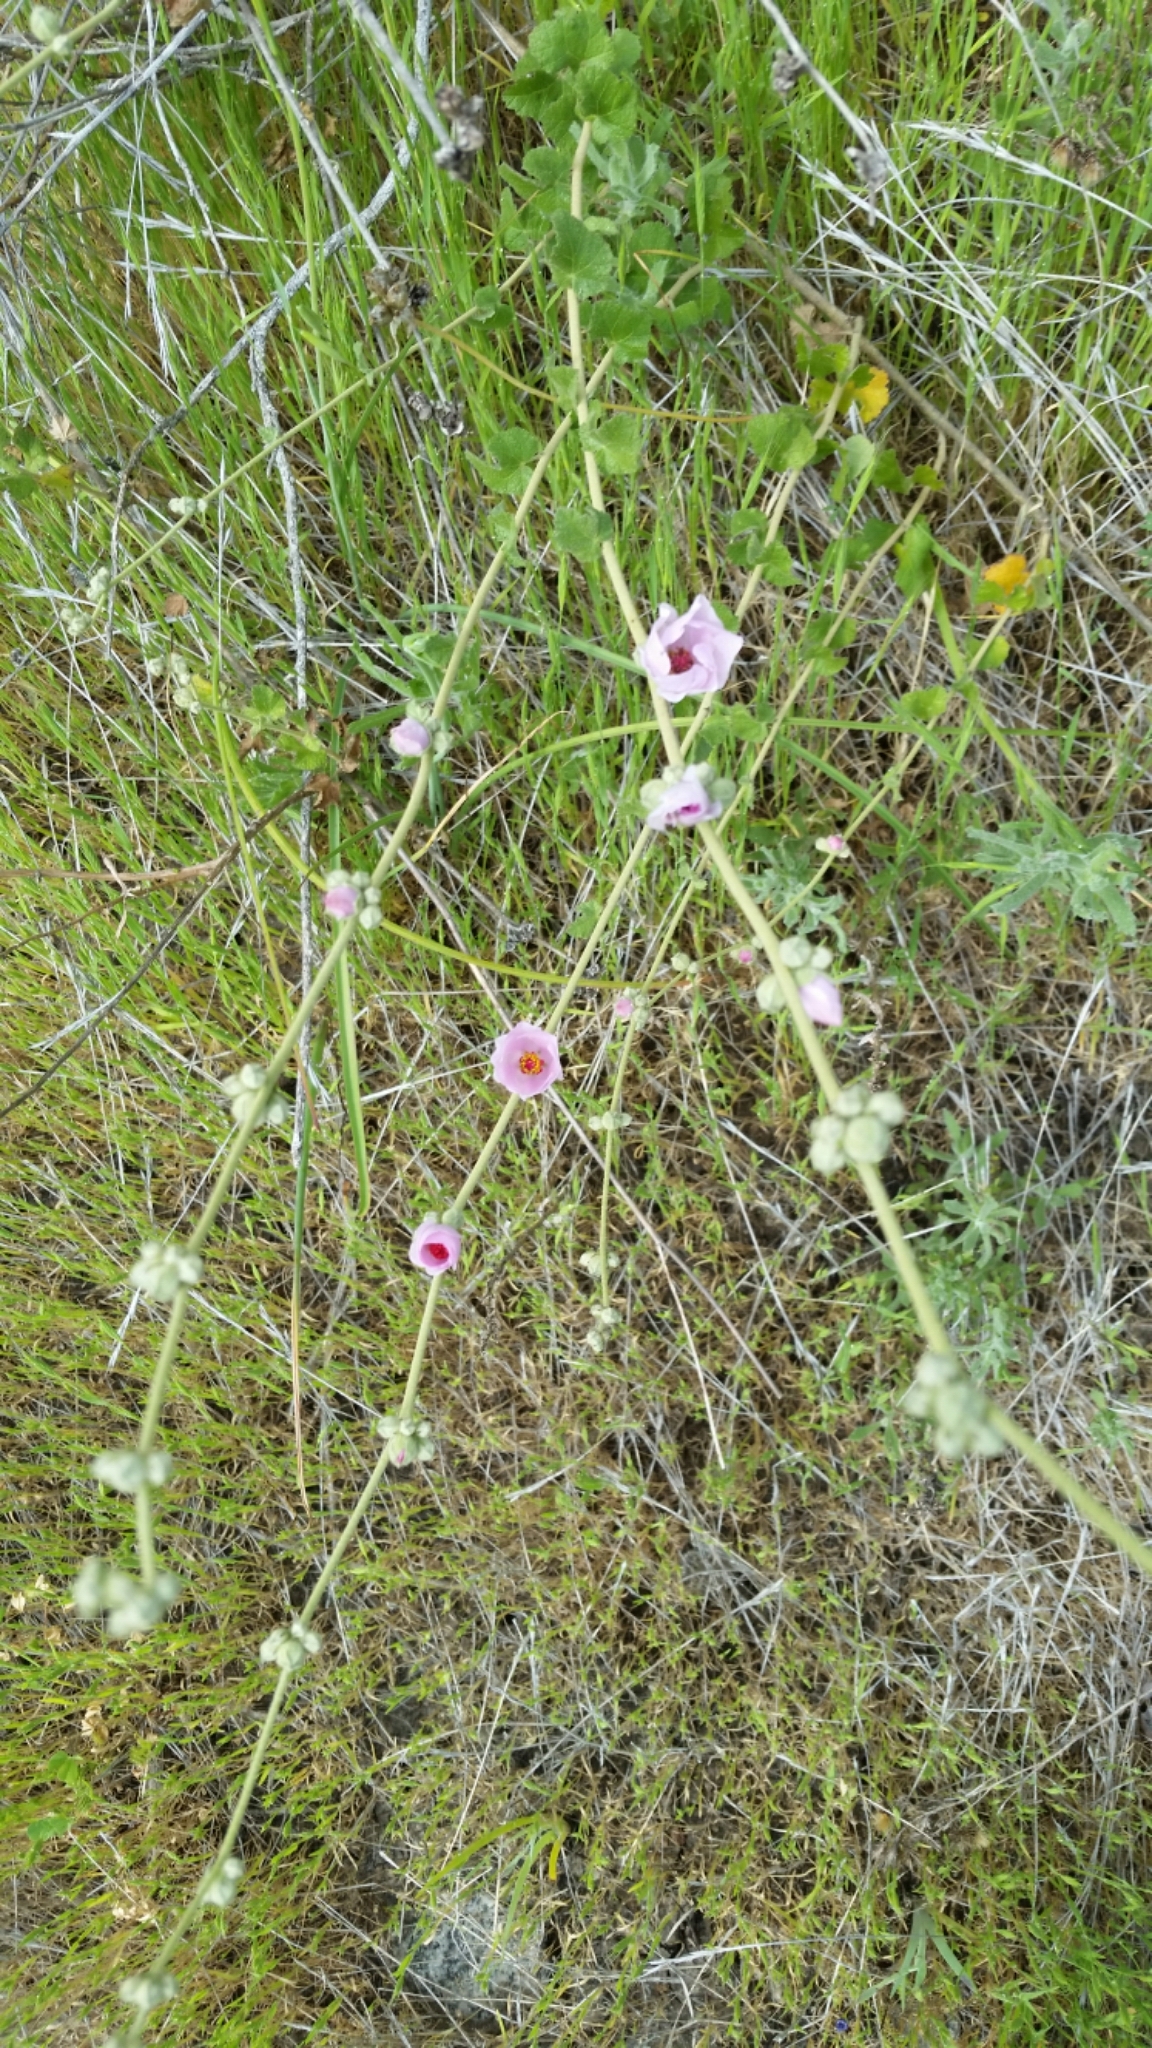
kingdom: Plantae
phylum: Tracheophyta
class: Magnoliopsida
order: Malvales
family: Malvaceae
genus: Malacothamnus
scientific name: Malacothamnus fasciculatus
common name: Sant cruz island bush-mallow
